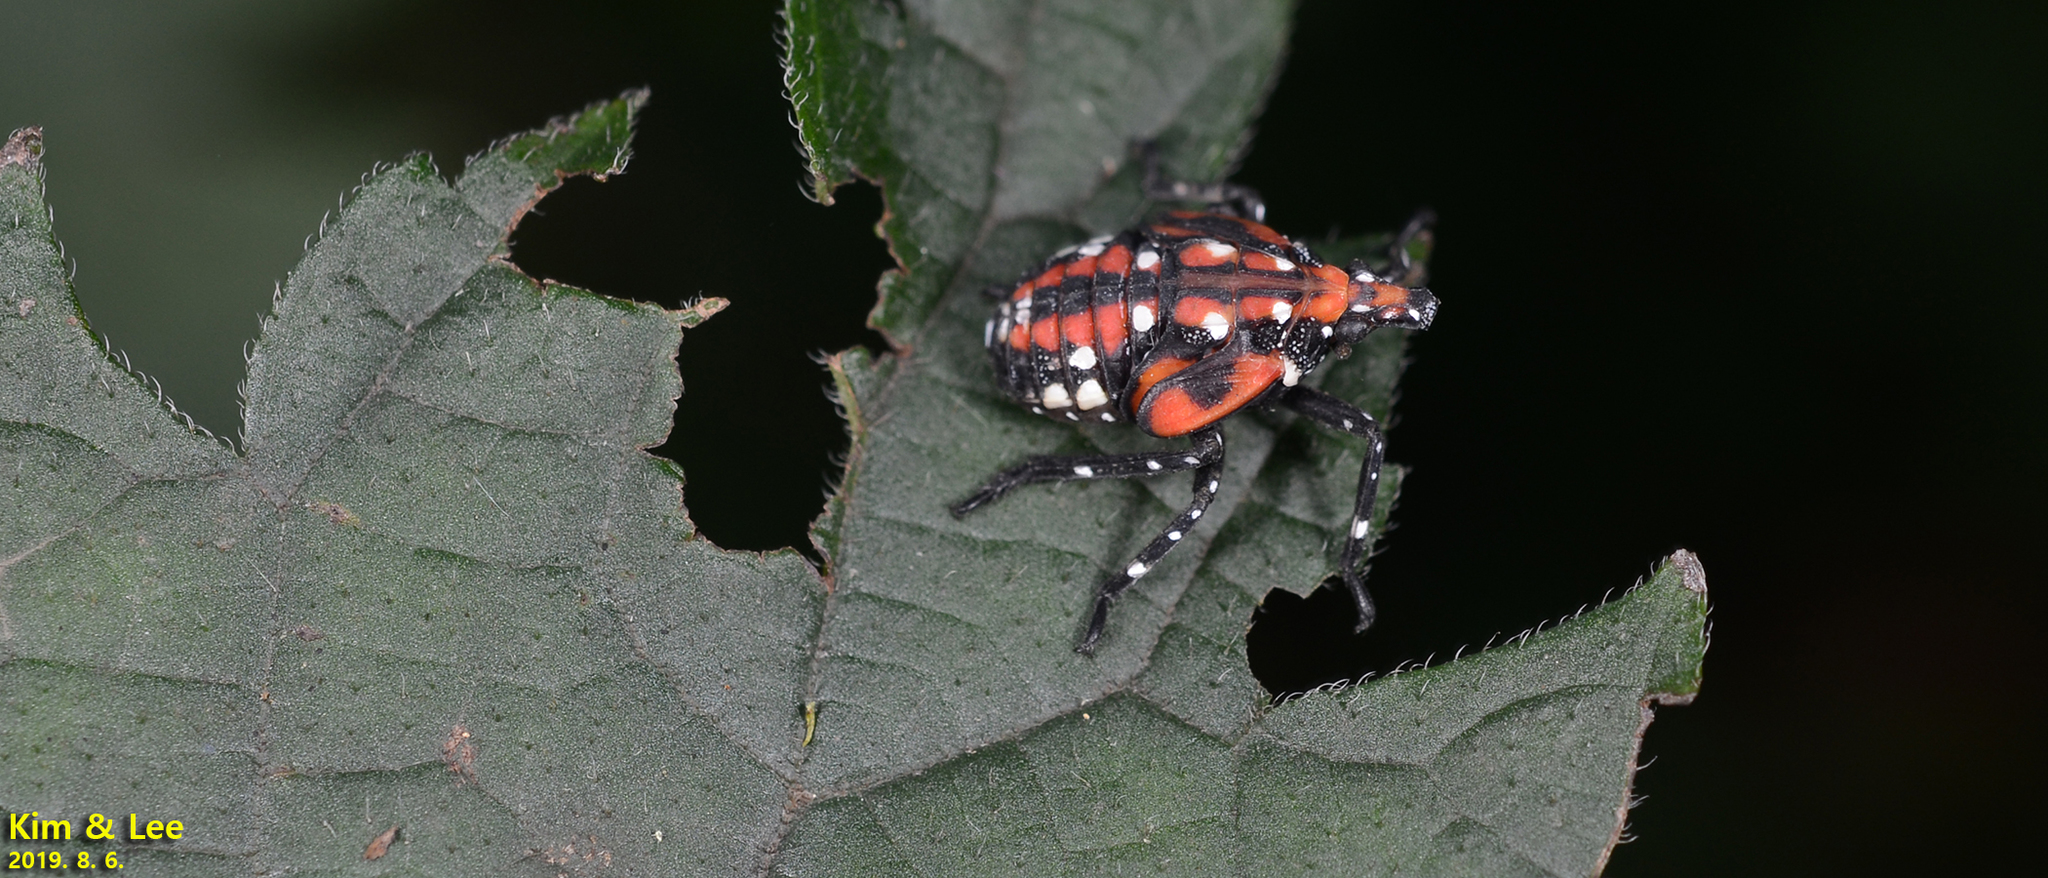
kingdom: Animalia
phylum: Arthropoda
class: Insecta
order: Hemiptera
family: Fulgoridae
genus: Lycorma
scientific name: Lycorma delicatula
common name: Spotted lanternfly
